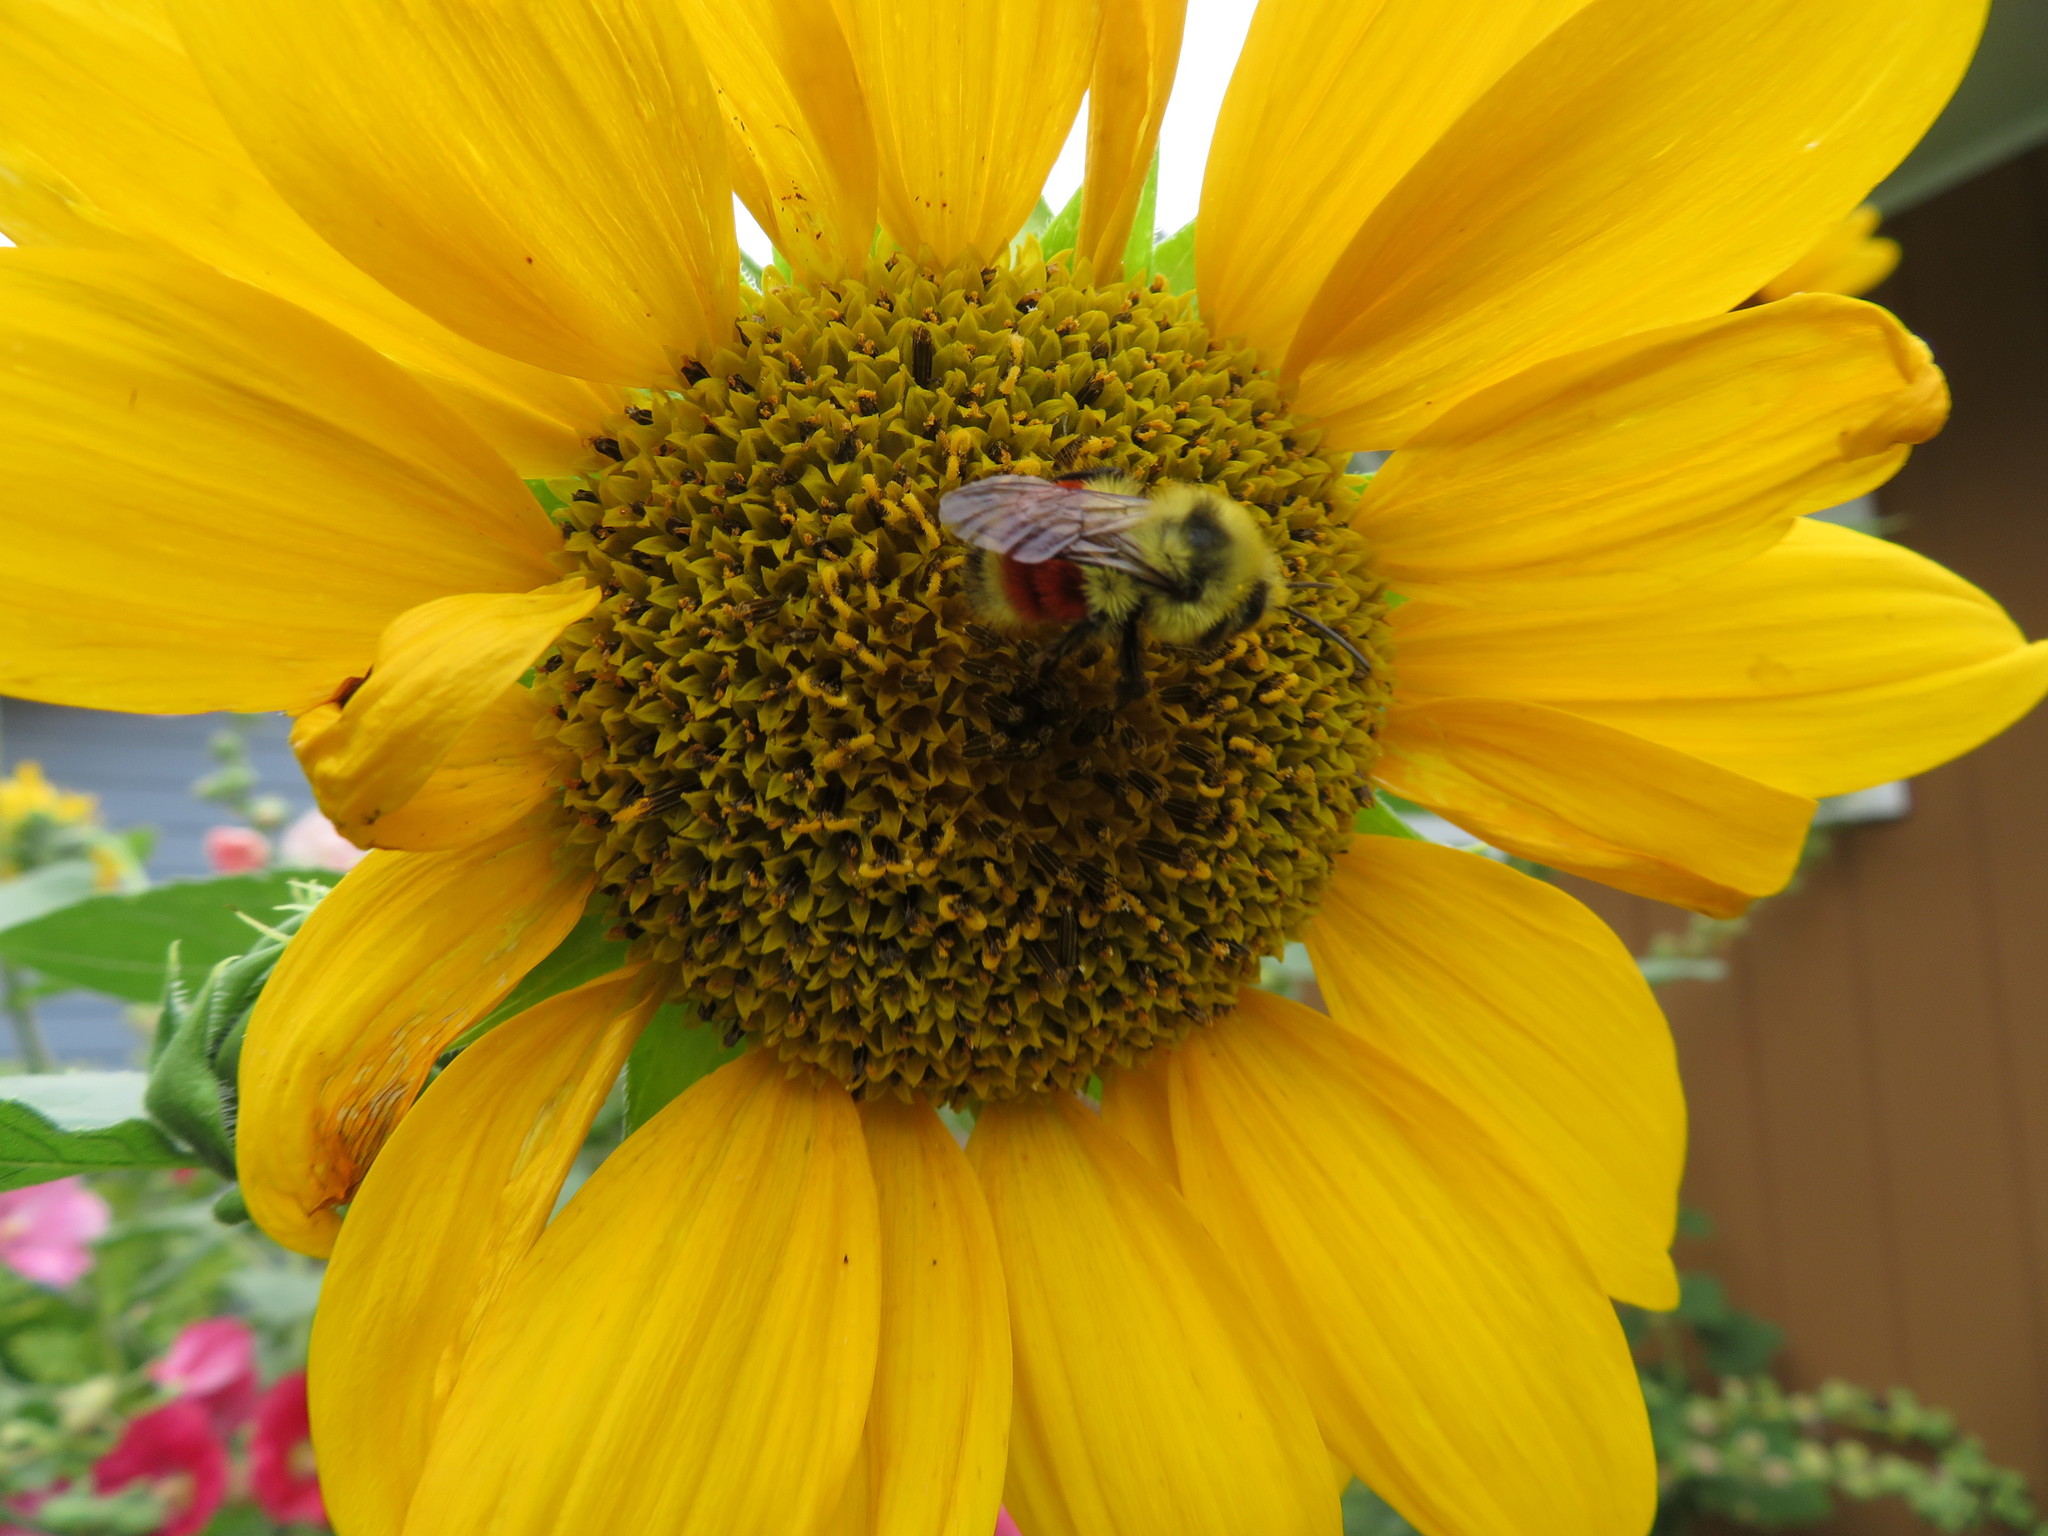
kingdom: Animalia
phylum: Arthropoda
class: Insecta
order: Hymenoptera
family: Apidae
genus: Bombus
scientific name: Bombus huntii
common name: Hunt bumble bee
